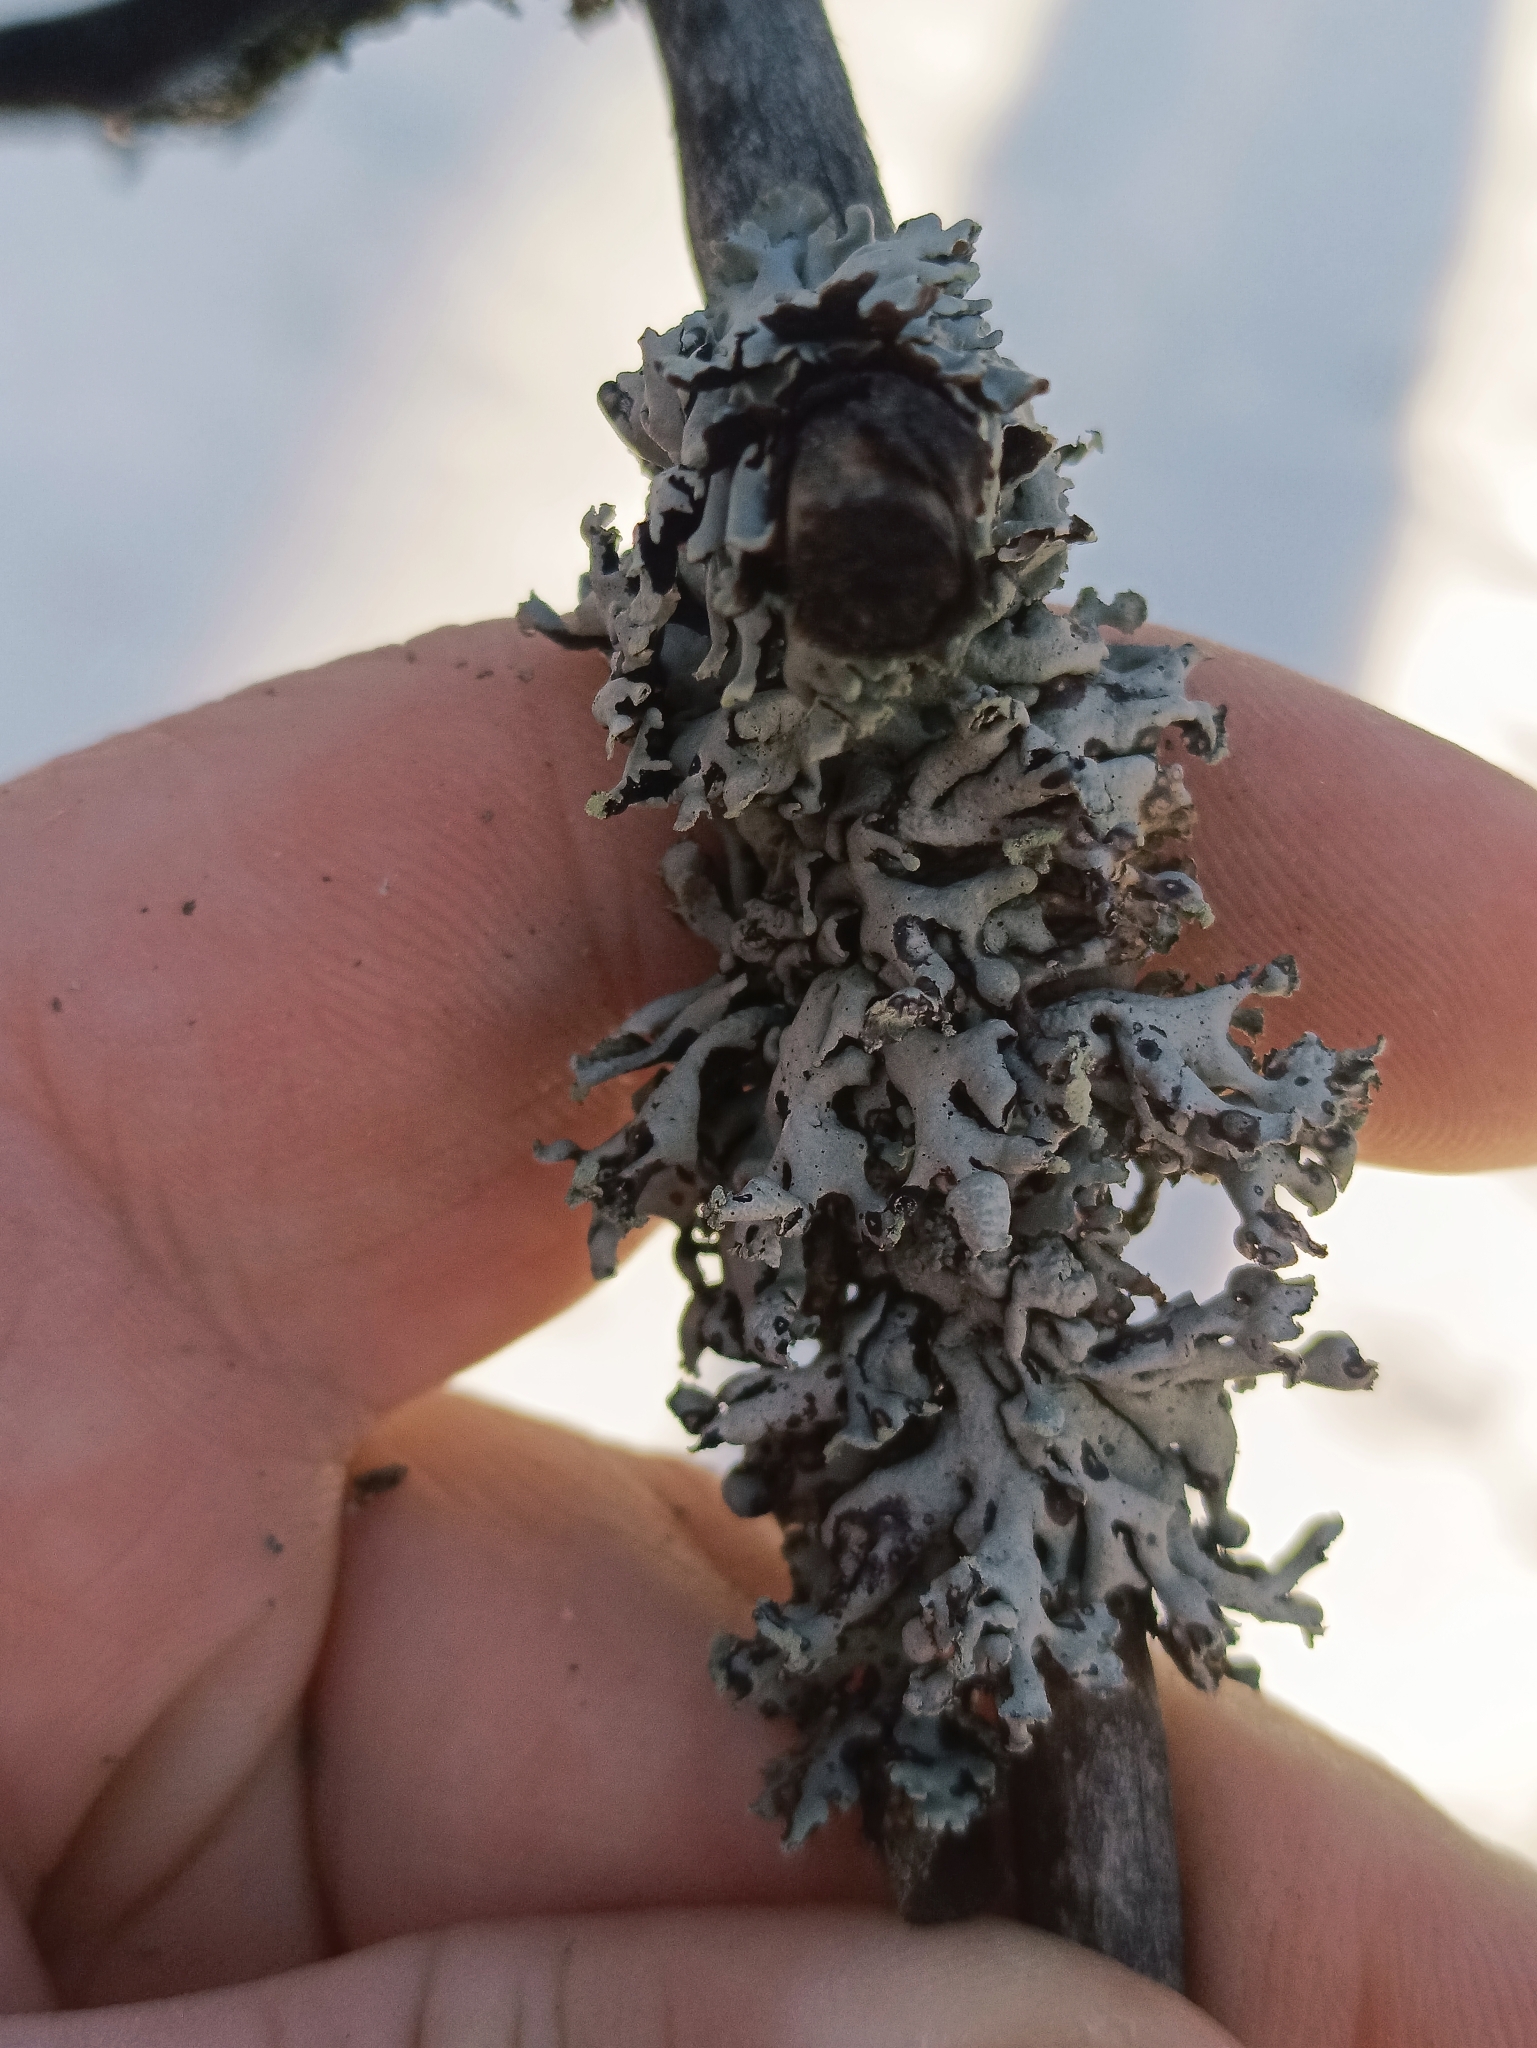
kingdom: Fungi
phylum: Ascomycota
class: Lecanoromycetes
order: Lecanorales
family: Parmeliaceae
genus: Hypogymnia
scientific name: Hypogymnia physodes
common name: Dark crottle
